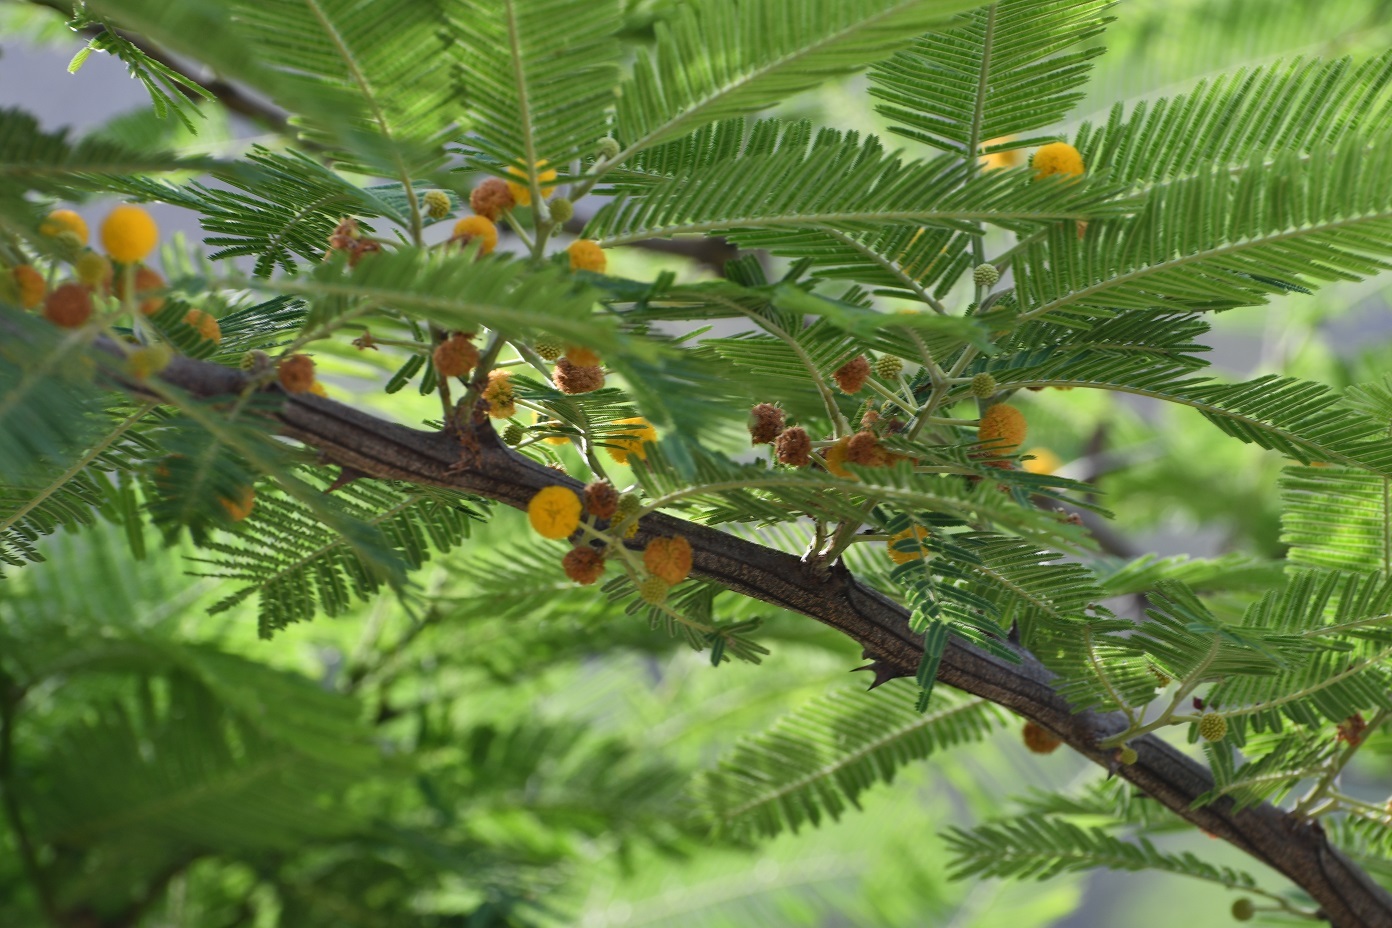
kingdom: Plantae
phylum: Tracheophyta
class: Magnoliopsida
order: Fabales
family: Fabaceae
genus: Vachellia
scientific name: Vachellia pennatula
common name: Fern-leaf acacia
